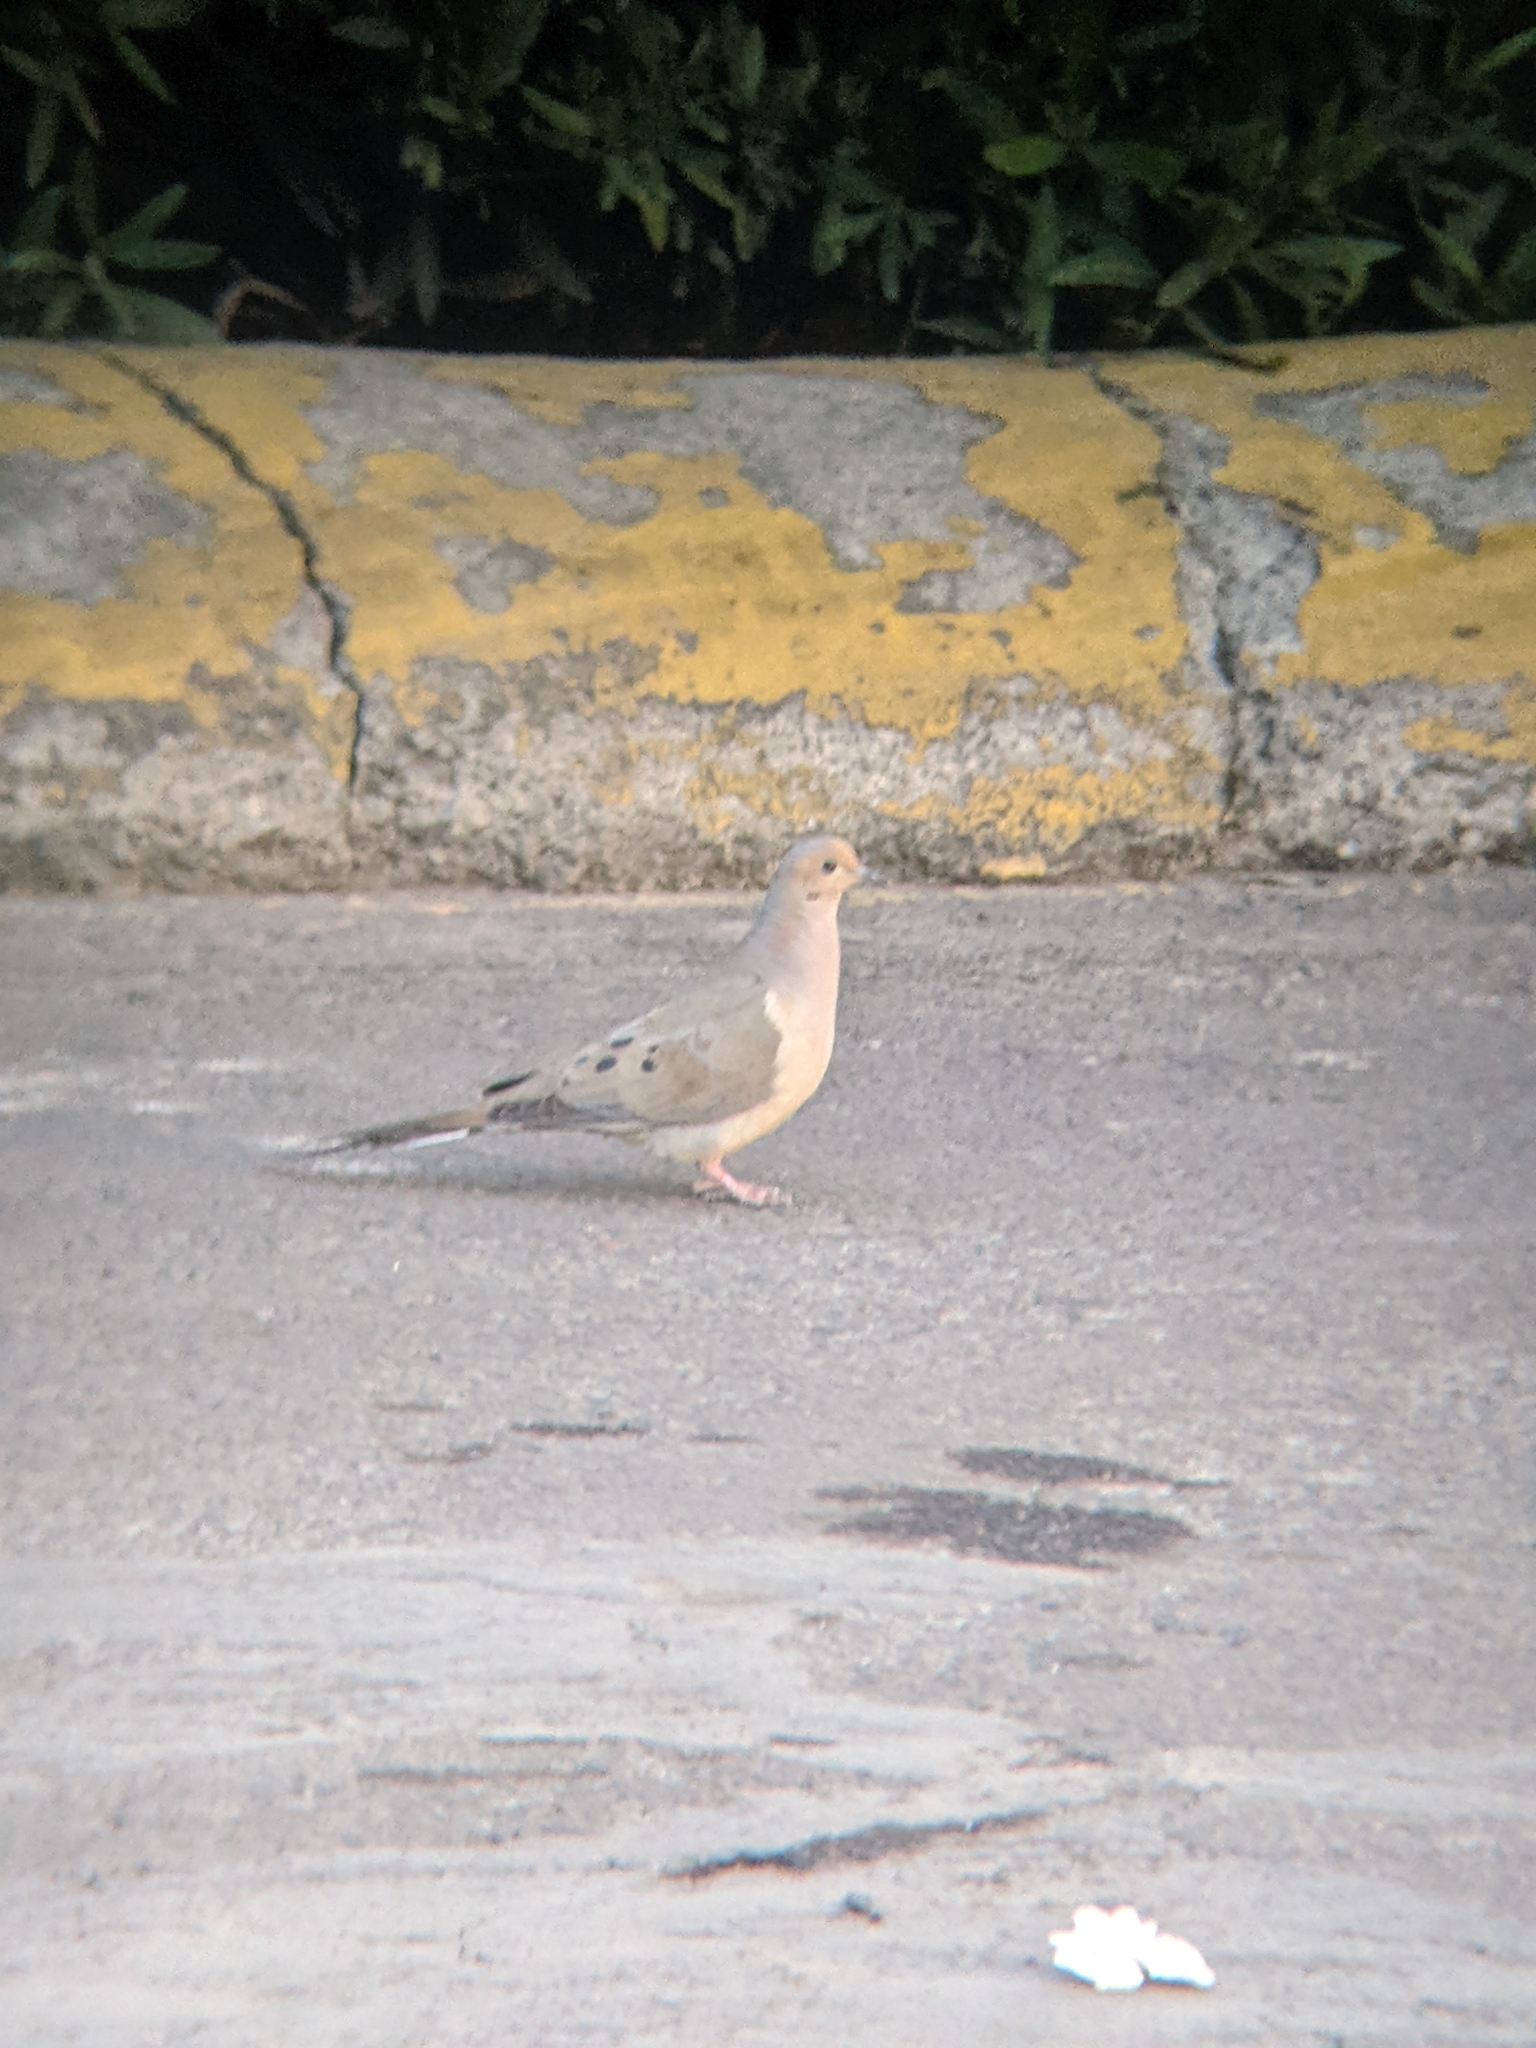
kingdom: Animalia
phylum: Chordata
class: Aves
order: Columbiformes
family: Columbidae
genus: Zenaida
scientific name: Zenaida macroura
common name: Mourning dove
